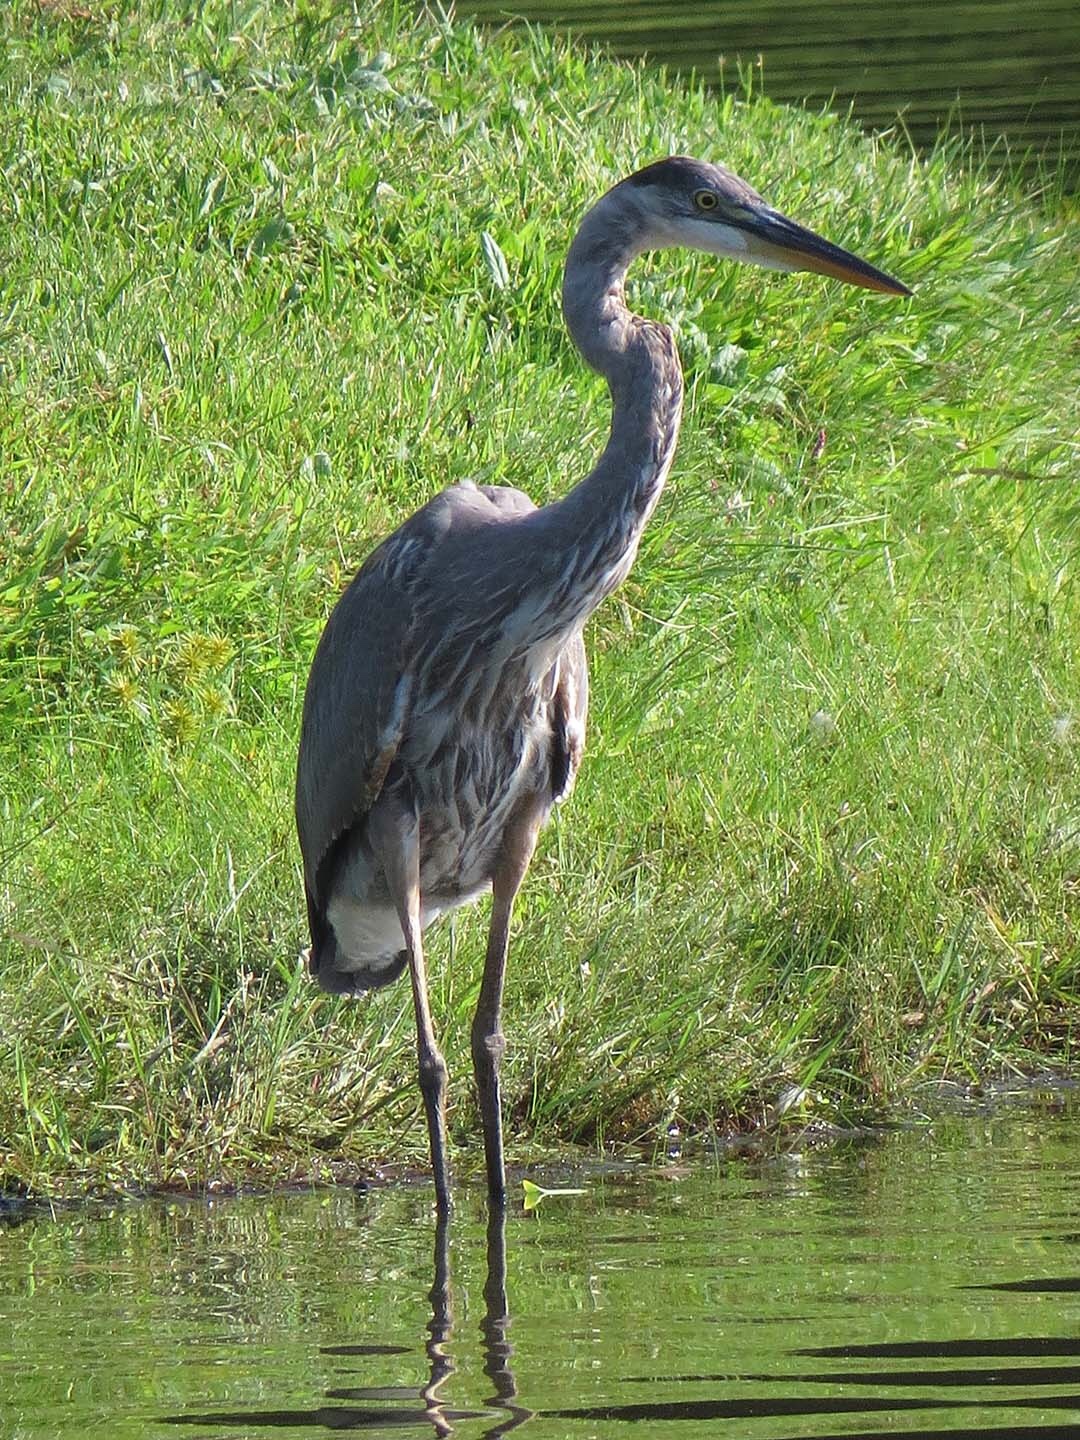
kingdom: Animalia
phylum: Chordata
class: Aves
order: Pelecaniformes
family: Ardeidae
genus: Ardea
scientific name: Ardea herodias
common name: Great blue heron
